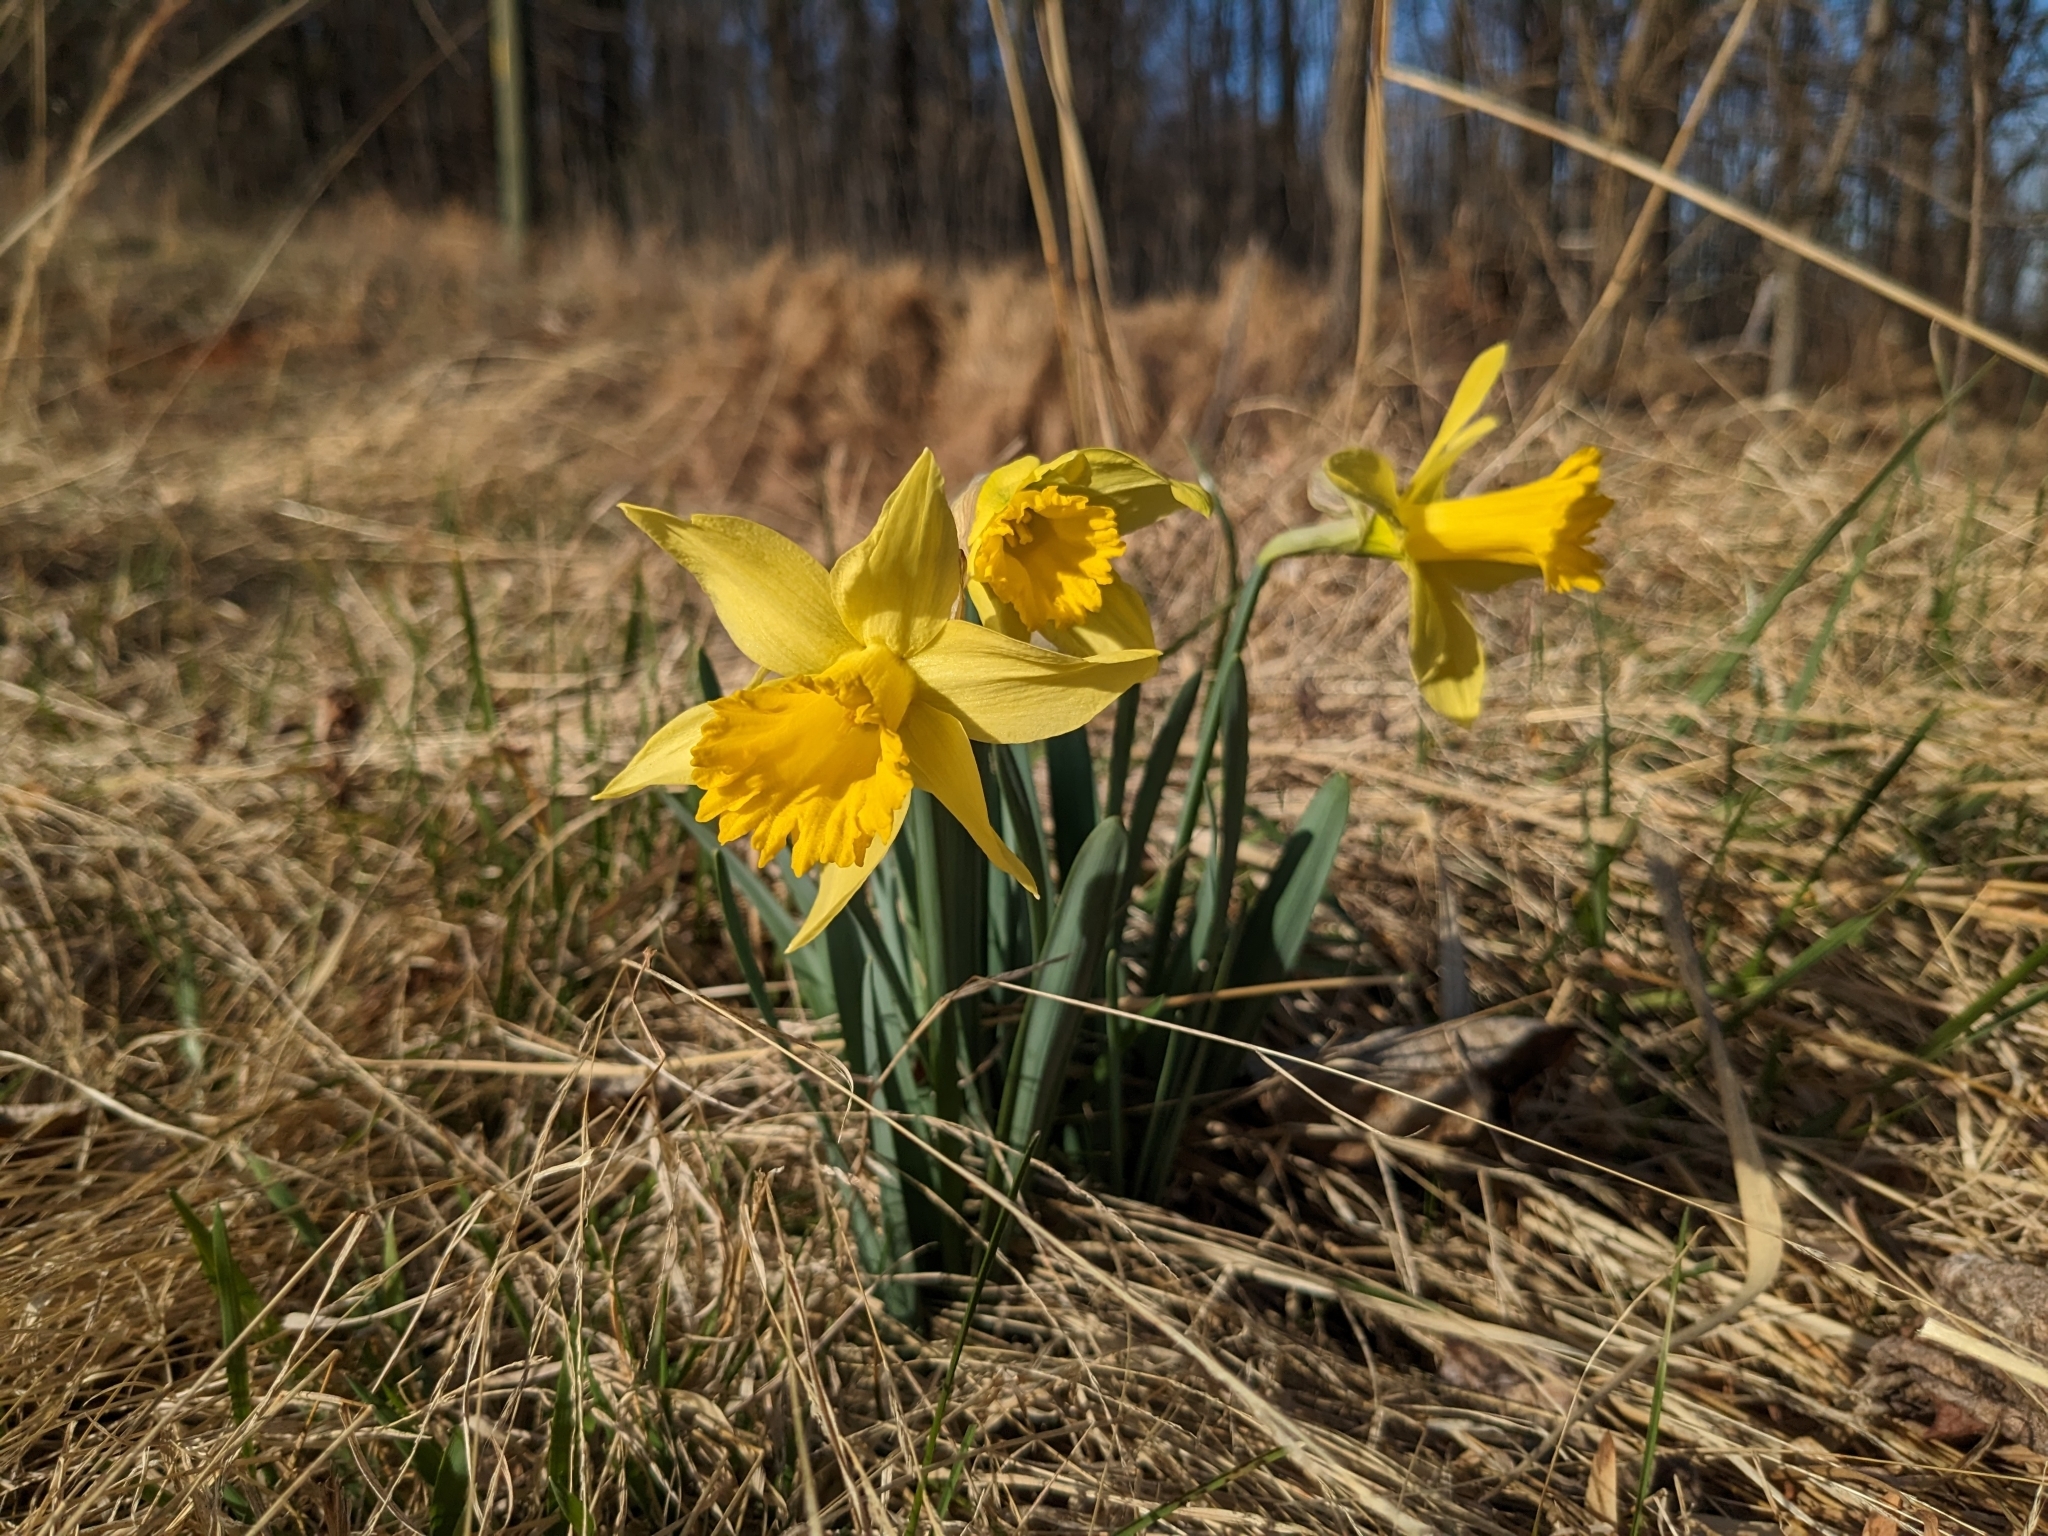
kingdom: Plantae
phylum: Tracheophyta
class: Liliopsida
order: Asparagales
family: Amaryllidaceae
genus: Narcissus
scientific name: Narcissus pseudonarcissus
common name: Daffodil
